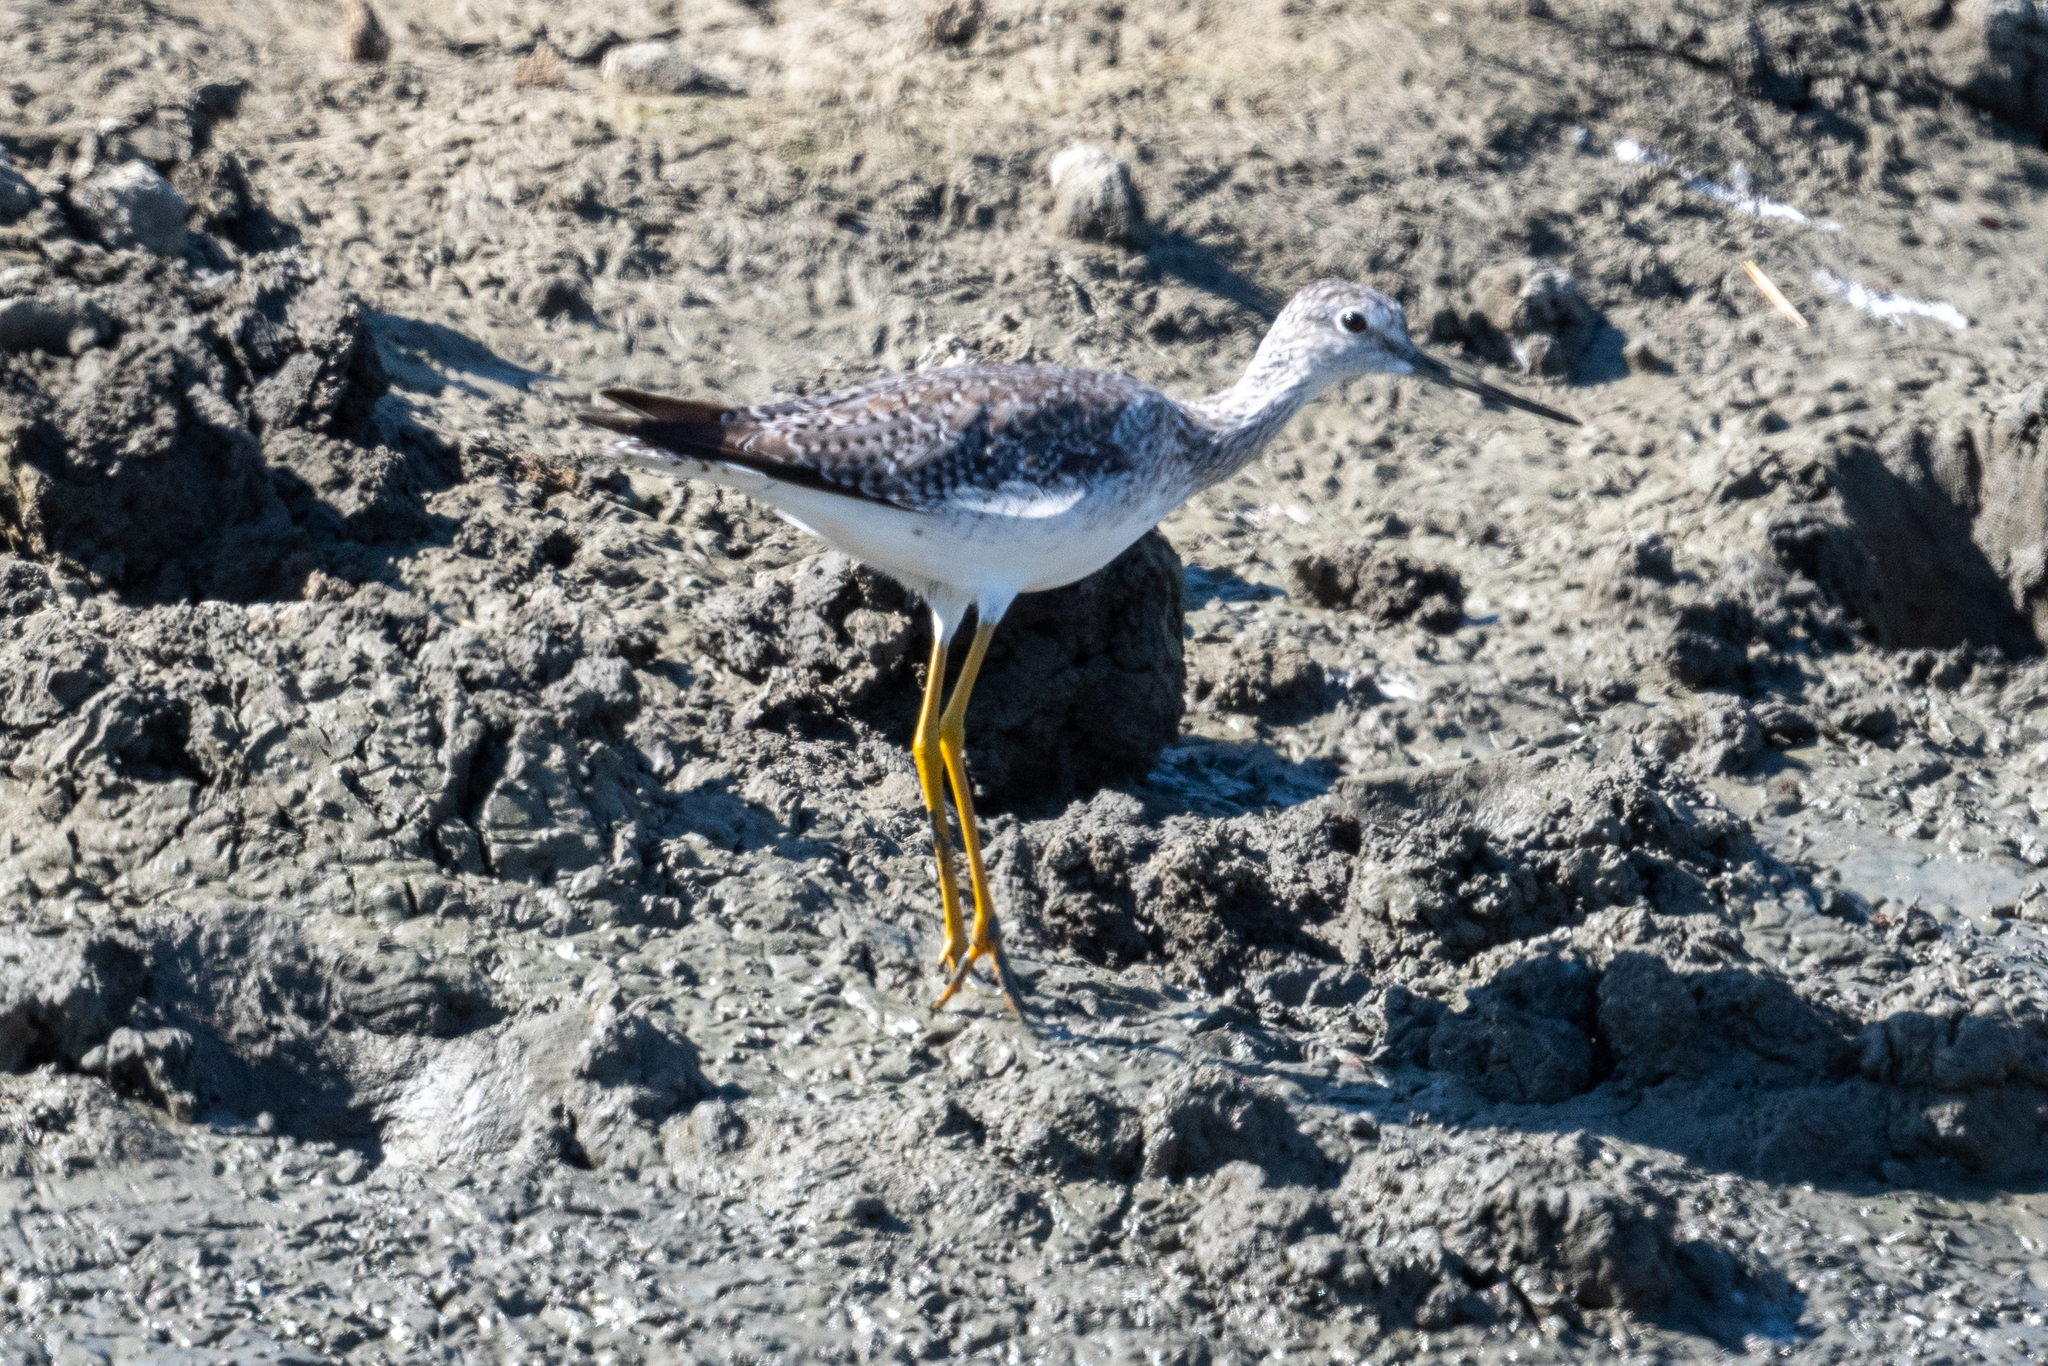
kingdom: Animalia
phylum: Chordata
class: Aves
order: Charadriiformes
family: Scolopacidae
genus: Tringa
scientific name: Tringa melanoleuca
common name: Greater yellowlegs
